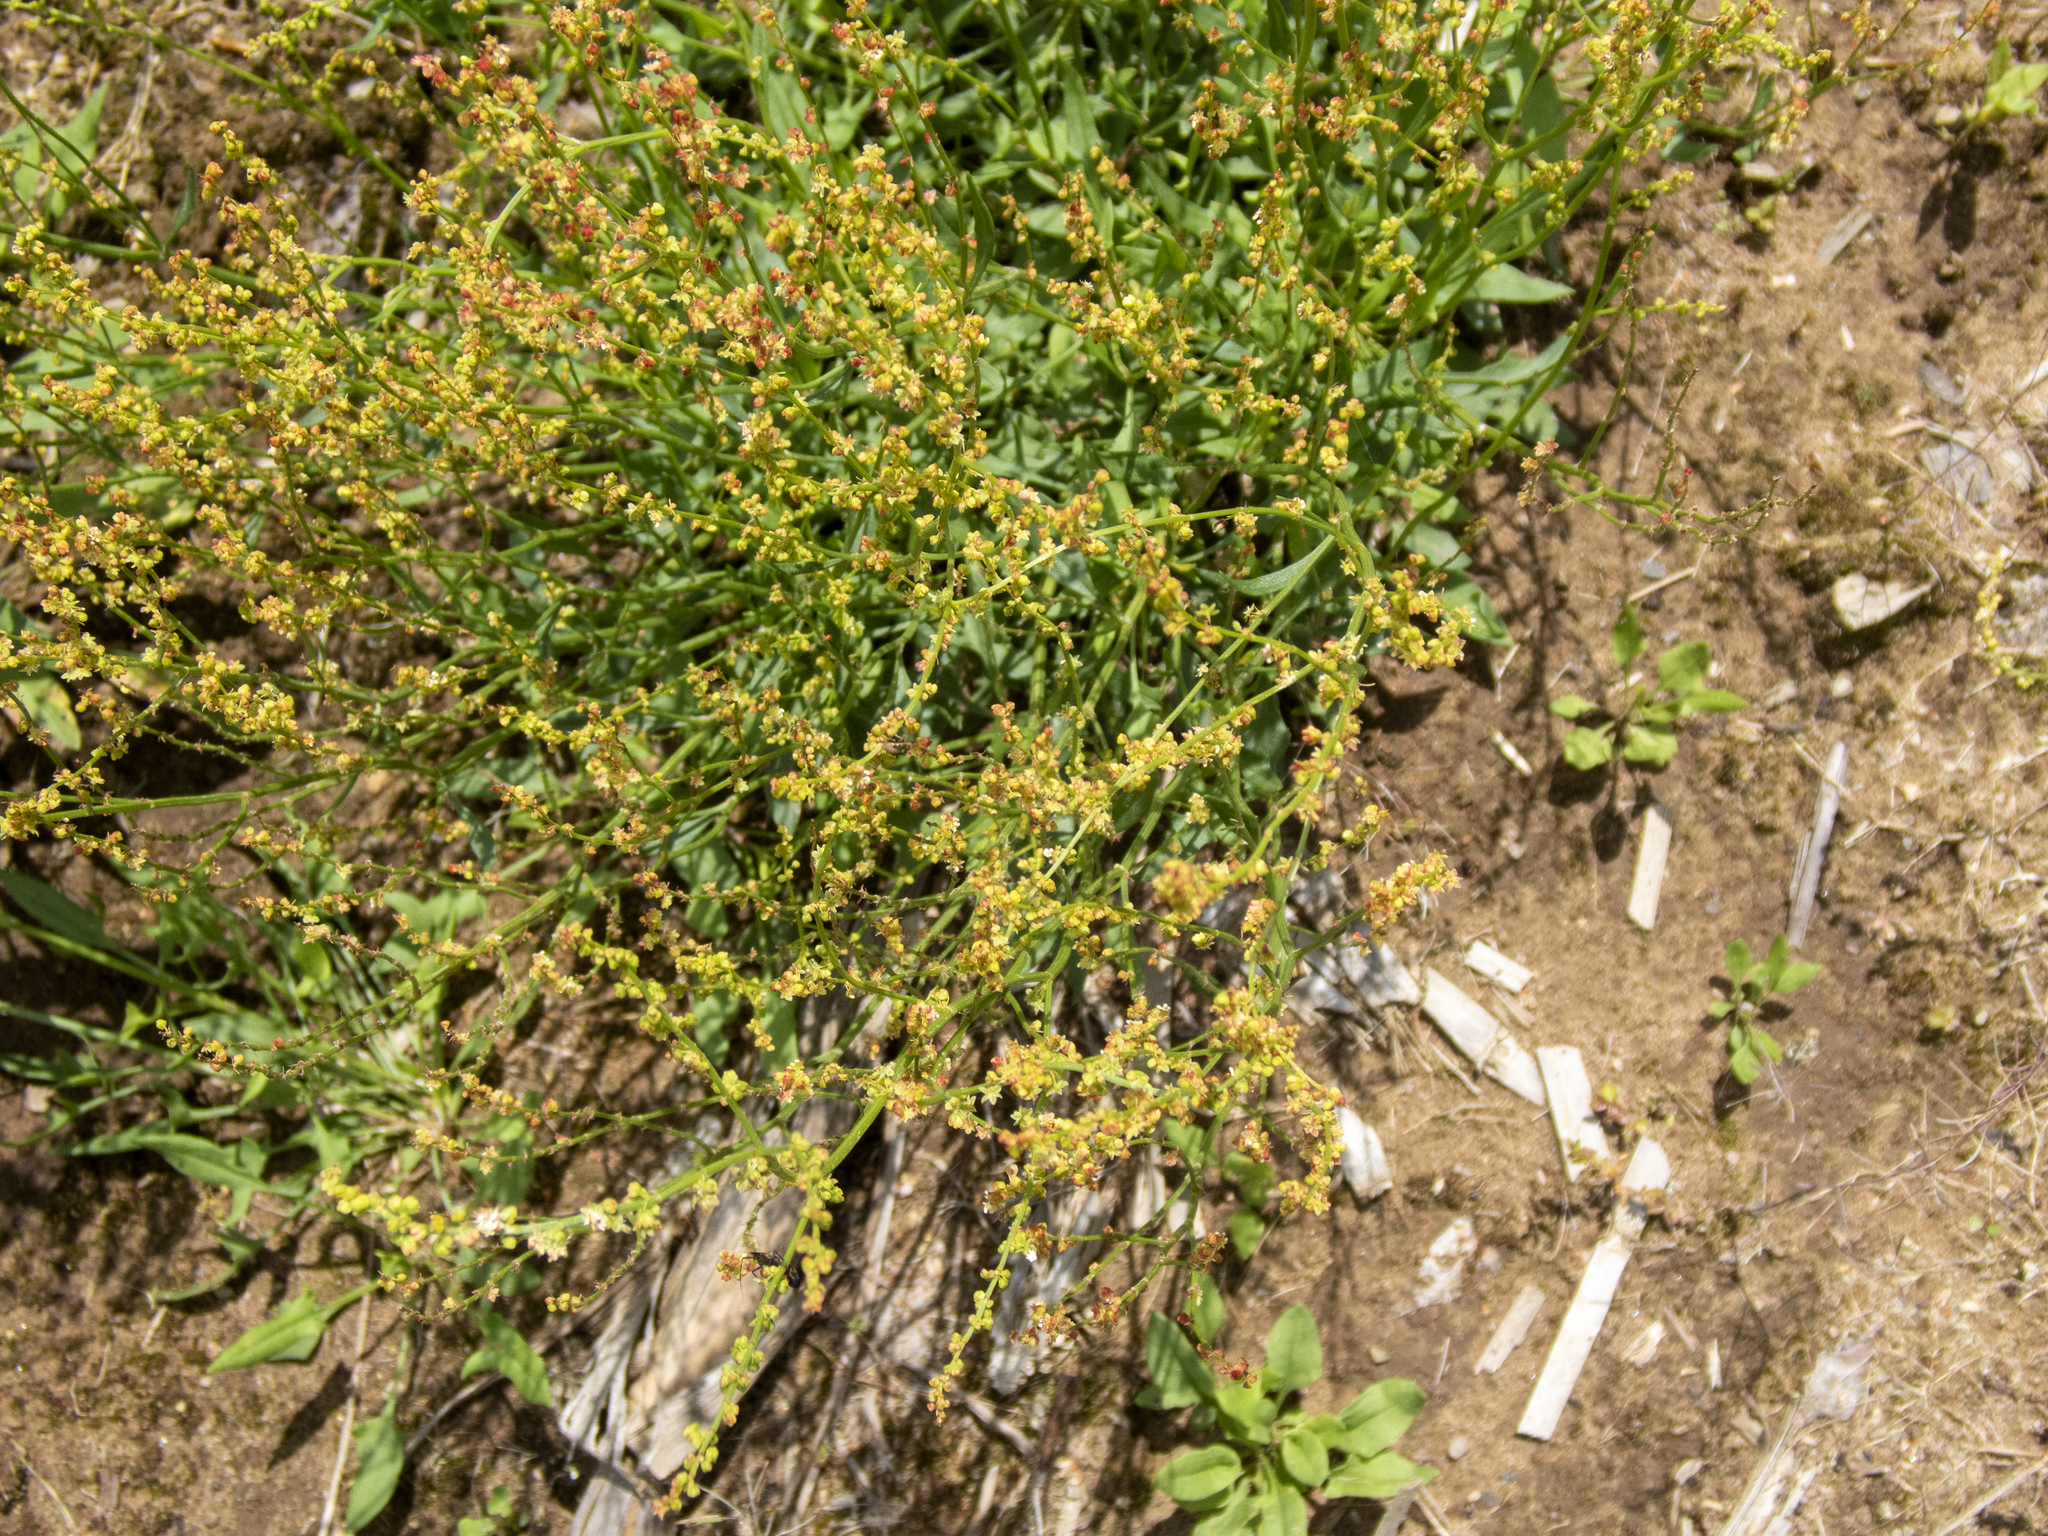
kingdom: Plantae
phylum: Tracheophyta
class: Magnoliopsida
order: Caryophyllales
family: Polygonaceae
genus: Rumex
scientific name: Rumex acetosella
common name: Common sheep sorrel
